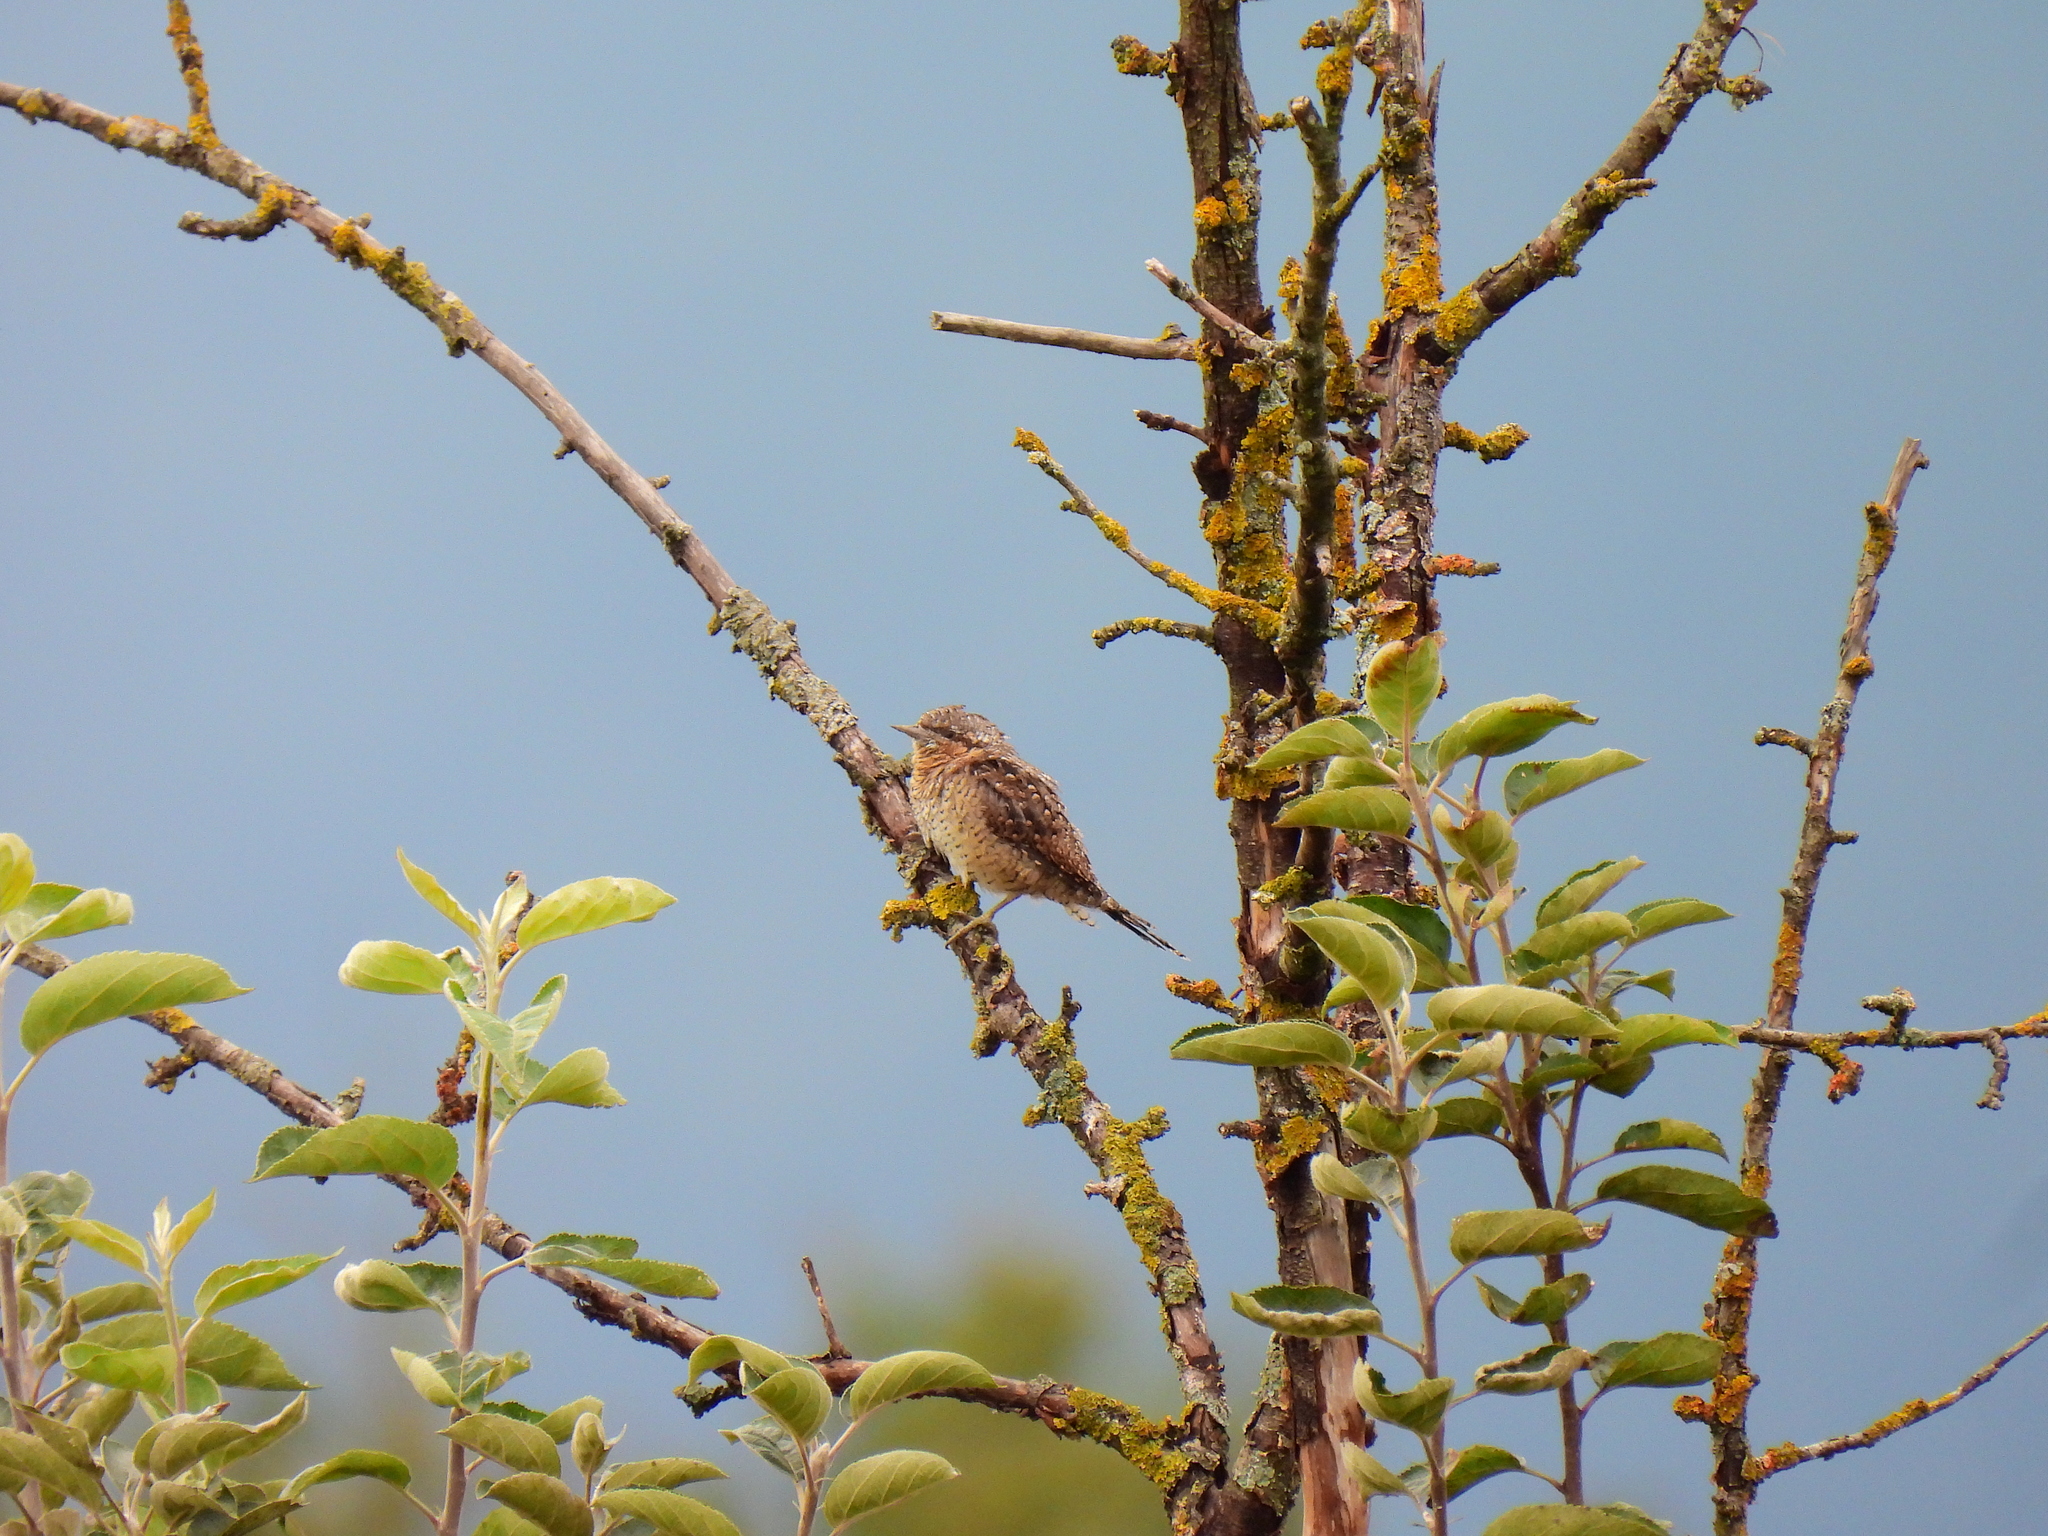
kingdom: Animalia
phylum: Chordata
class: Aves
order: Piciformes
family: Picidae
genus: Jynx
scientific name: Jynx torquilla
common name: Eurasian wryneck
